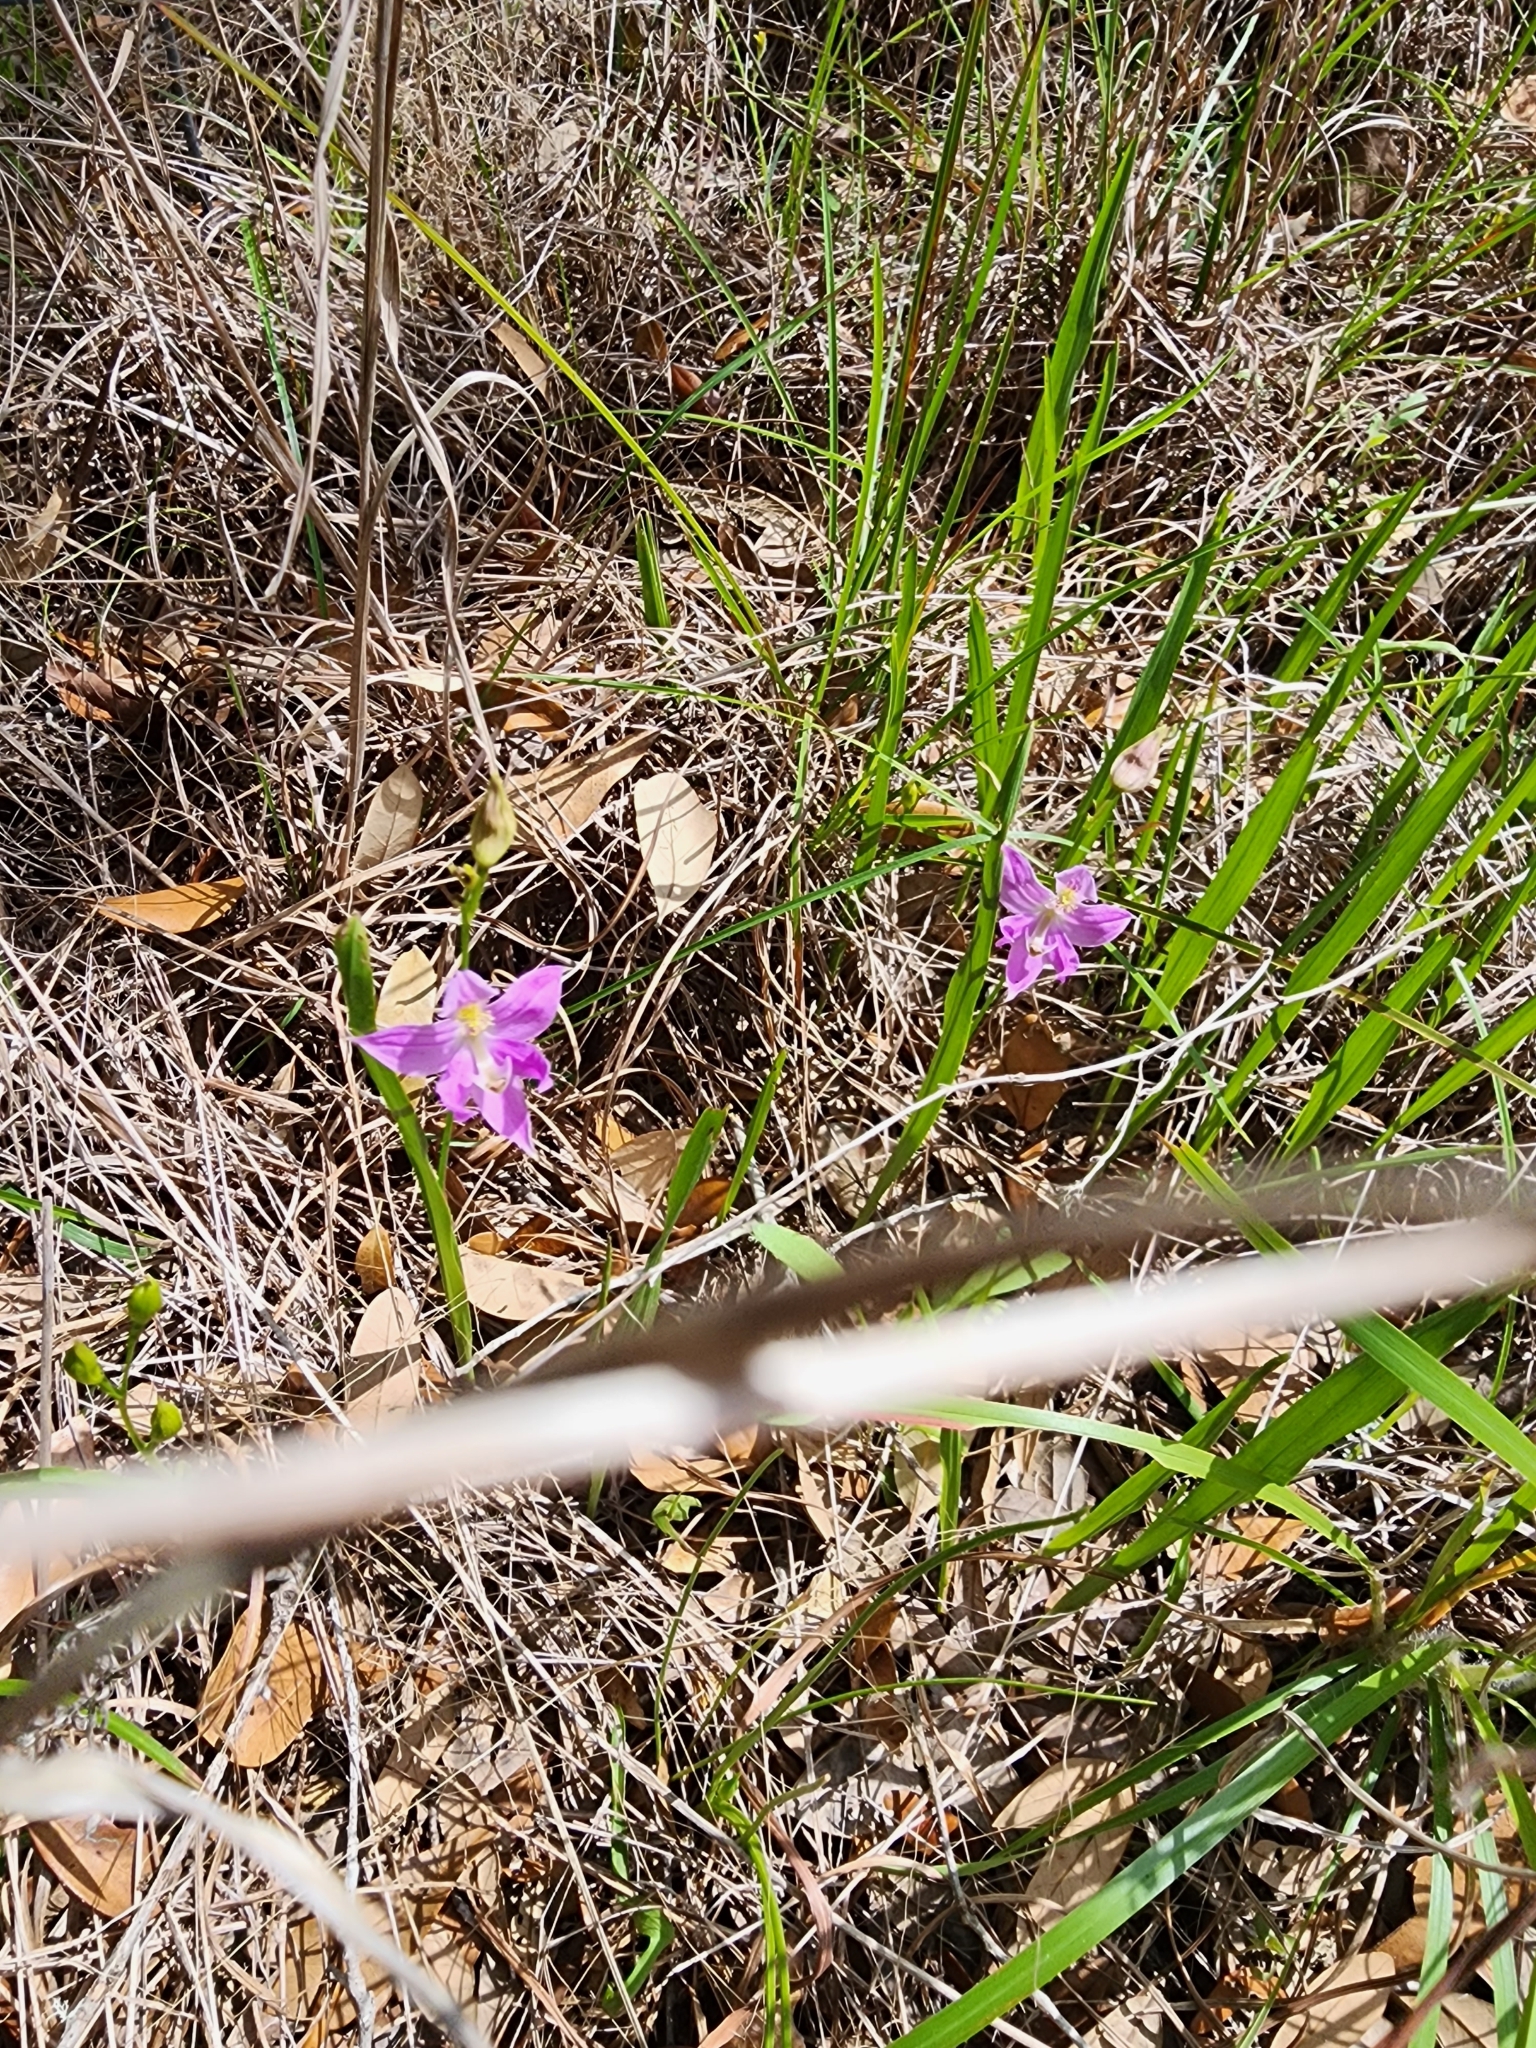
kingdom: Plantae
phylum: Tracheophyta
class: Liliopsida
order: Asparagales
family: Orchidaceae
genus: Calopogon
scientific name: Calopogon oklahomensis
